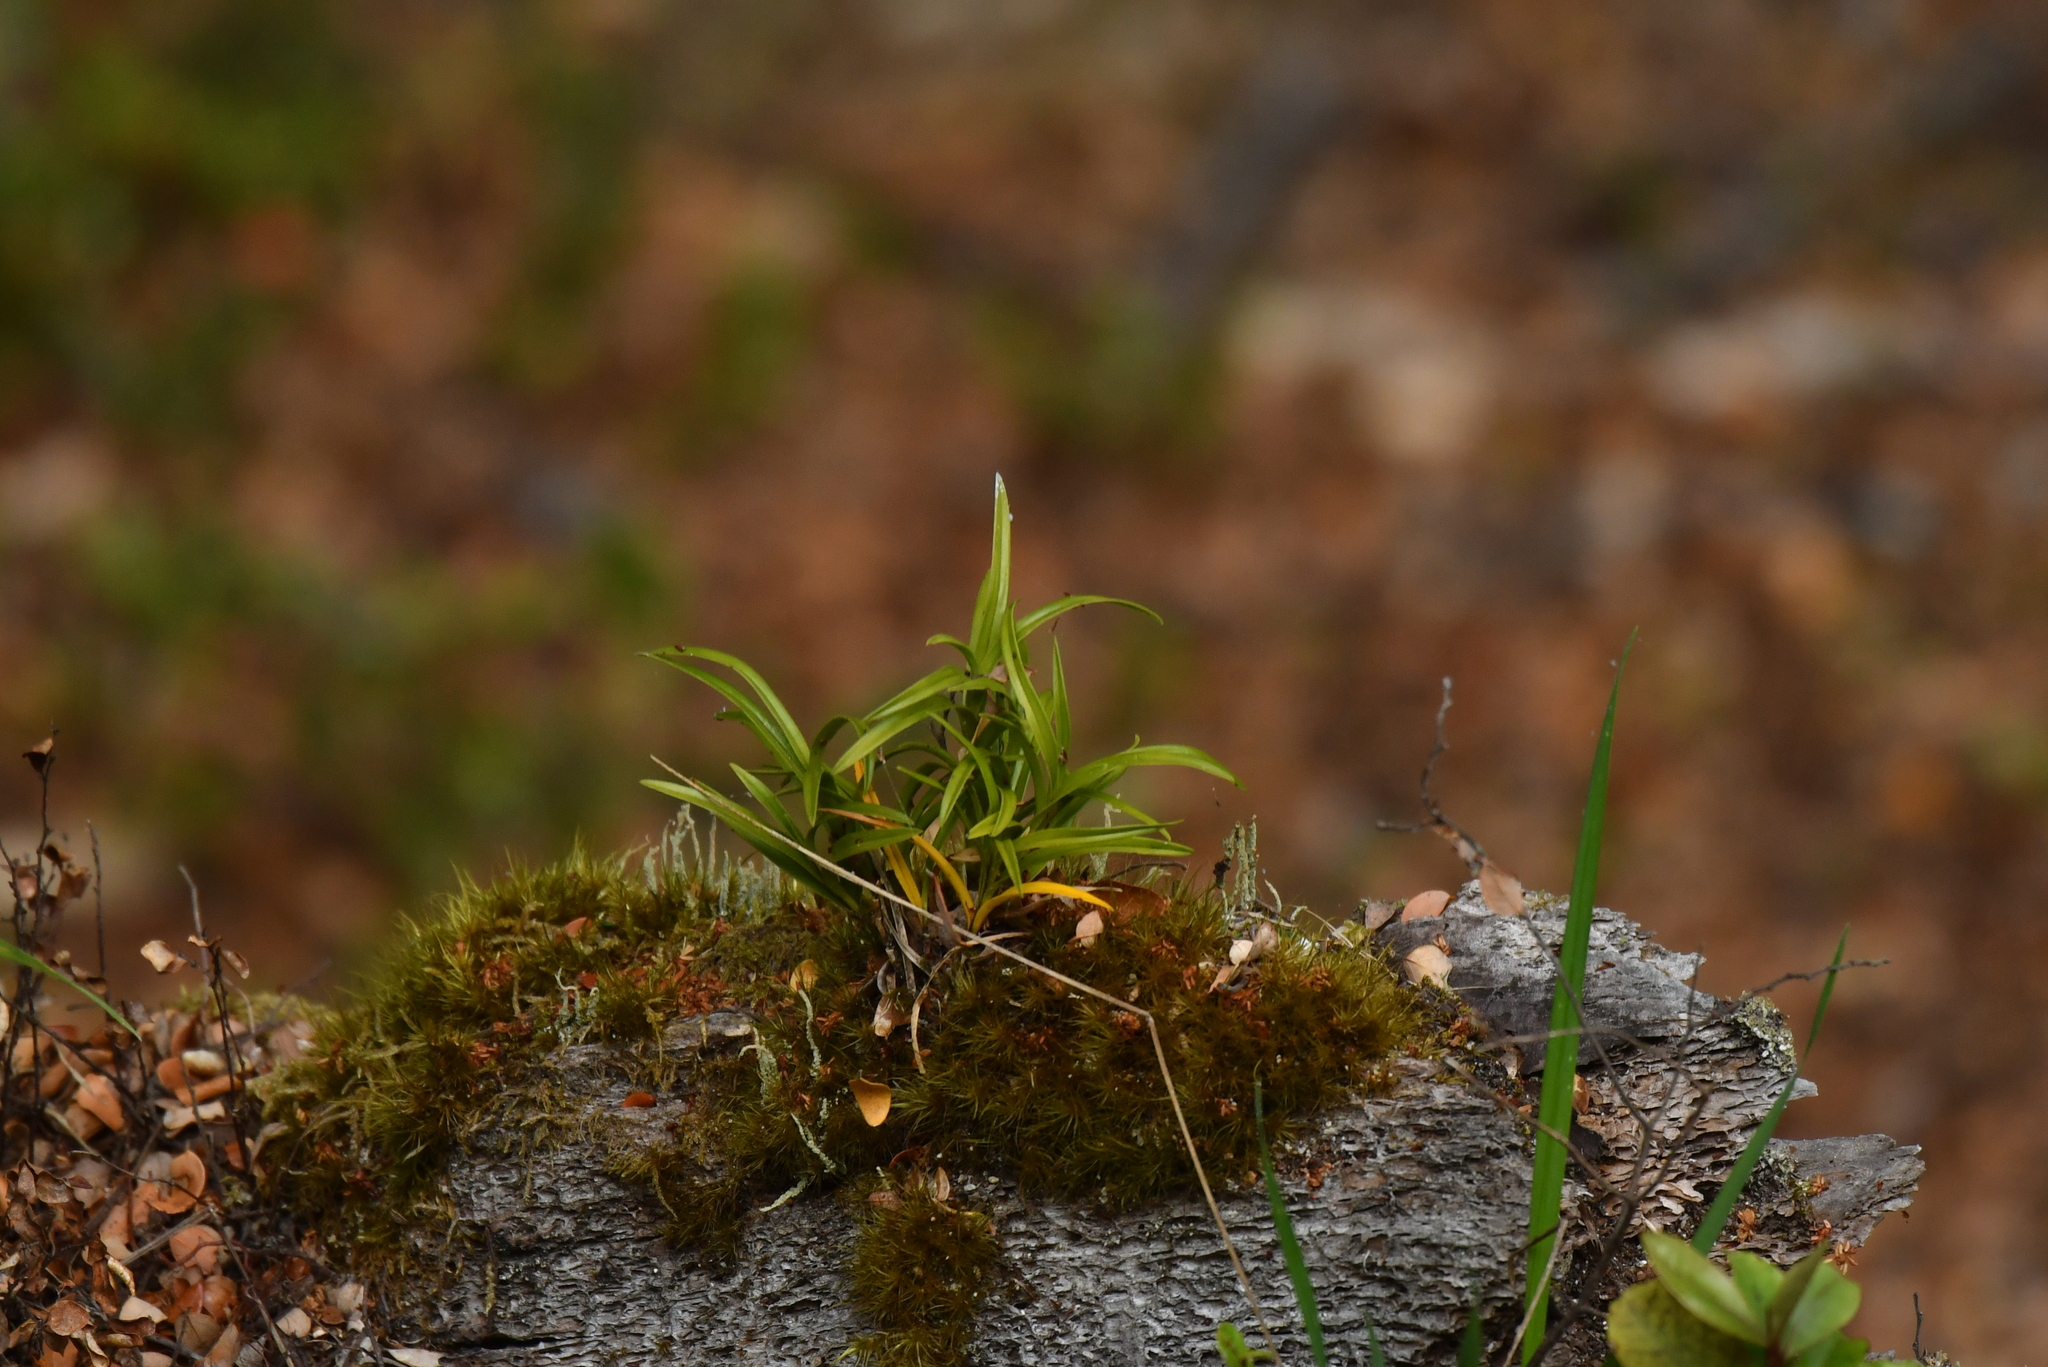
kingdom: Plantae
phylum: Tracheophyta
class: Liliopsida
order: Asparagales
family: Orchidaceae
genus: Earina
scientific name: Earina autumnalis
